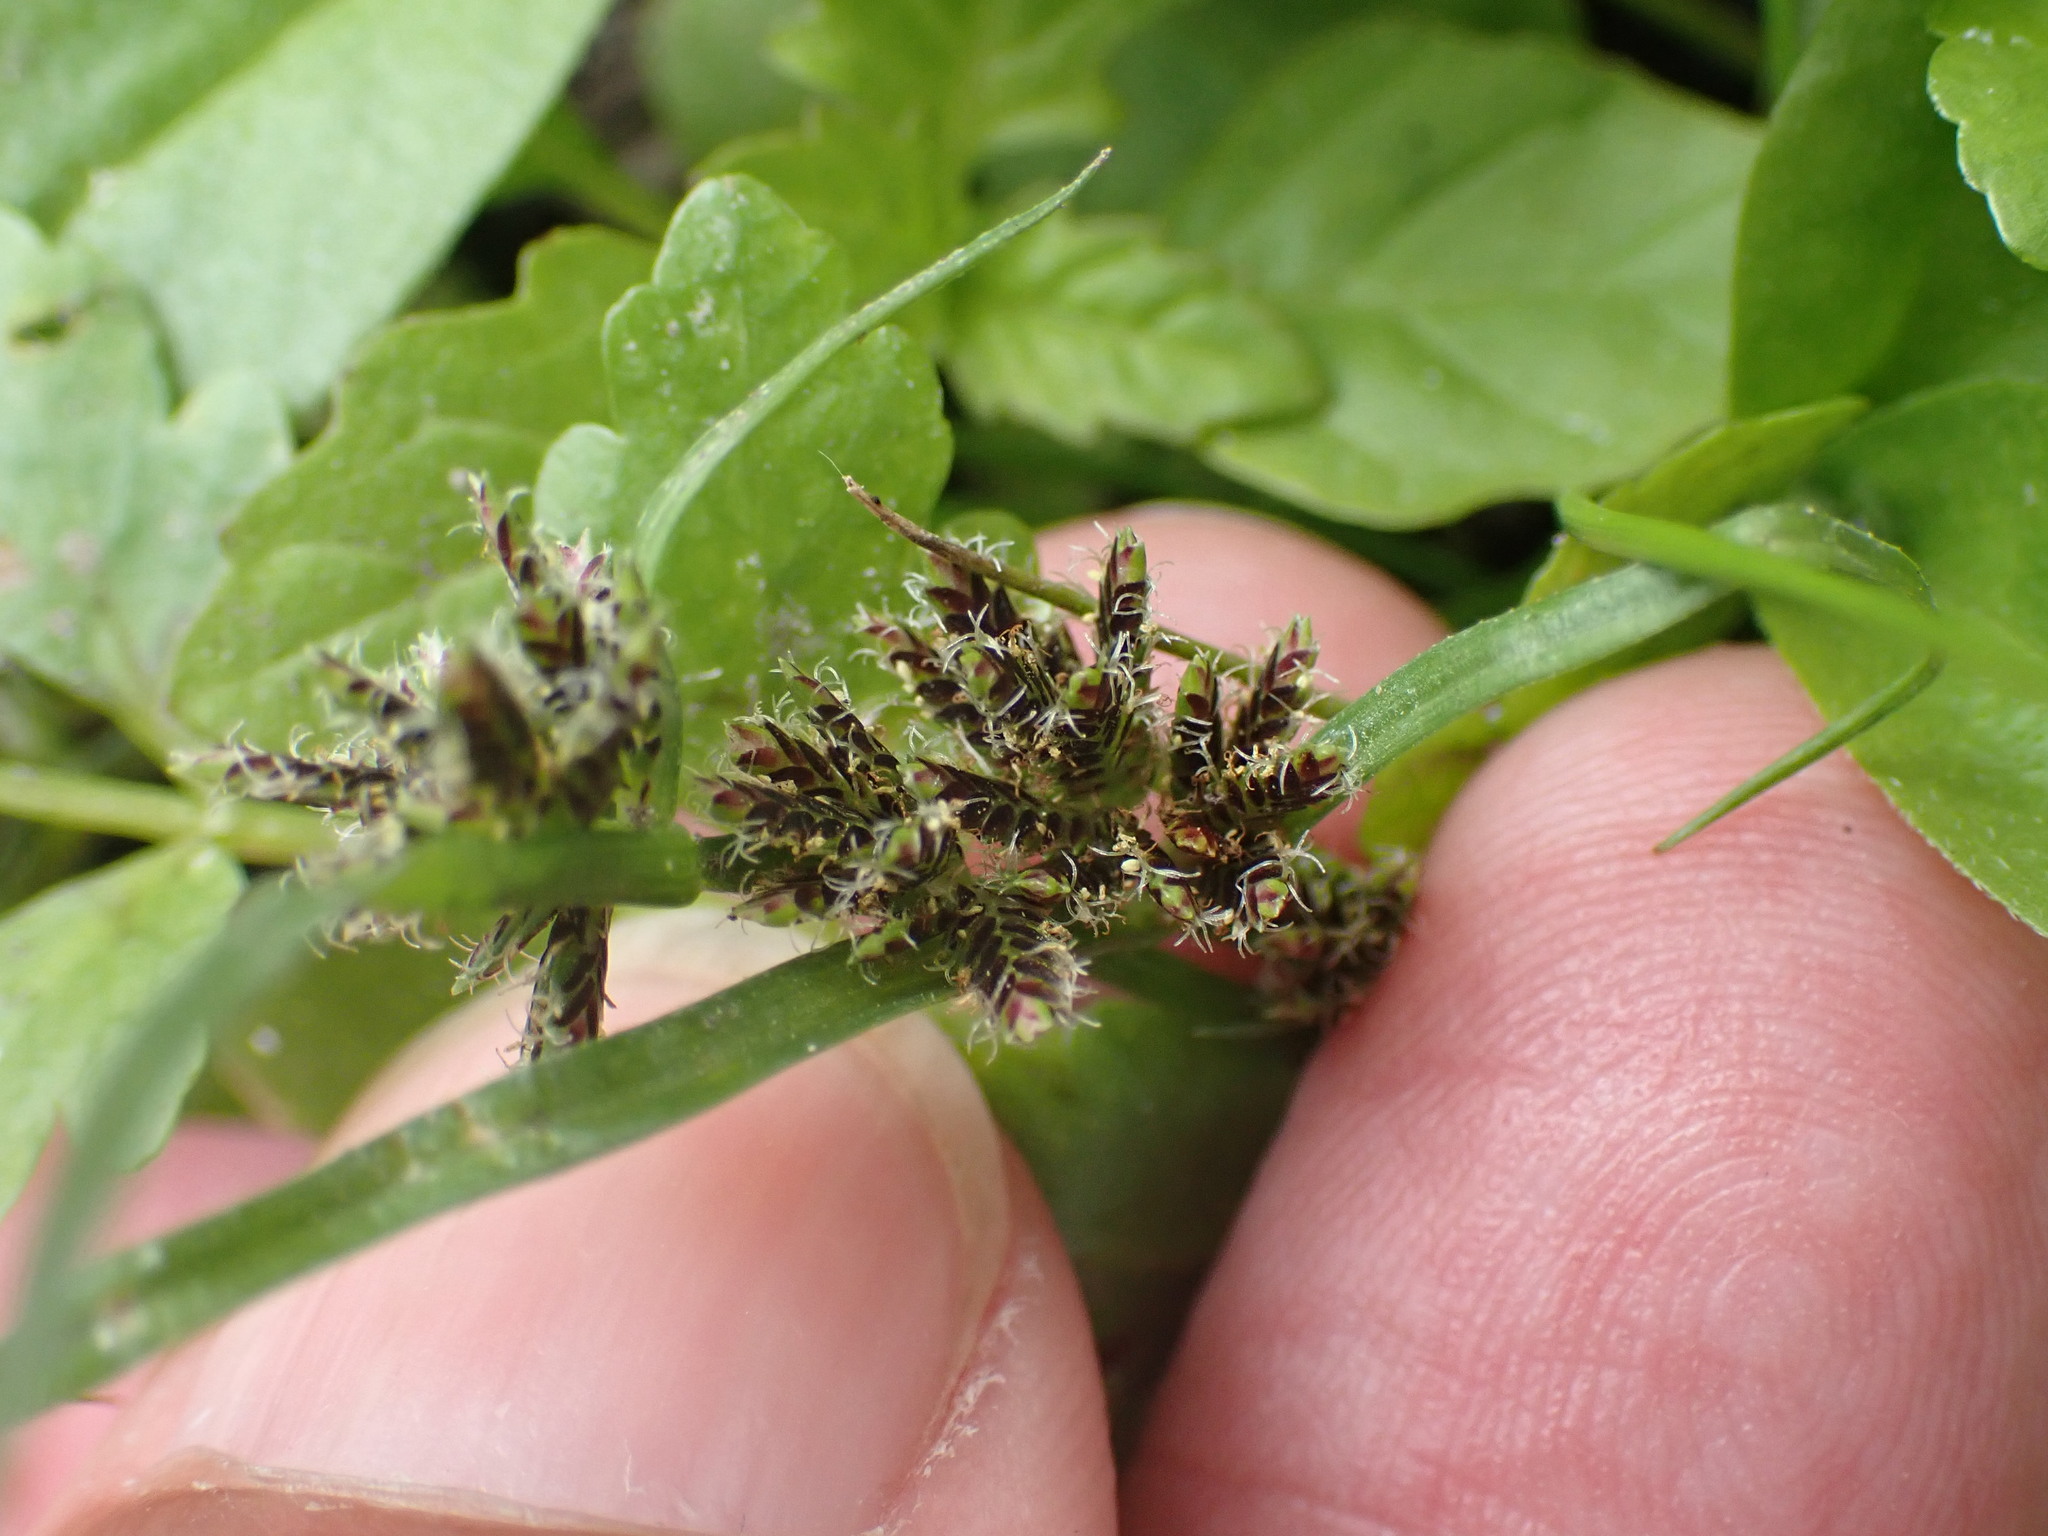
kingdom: Plantae
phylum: Tracheophyta
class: Liliopsida
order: Poales
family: Cyperaceae
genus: Cyperus
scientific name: Cyperus fuscus
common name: Brown galingale
